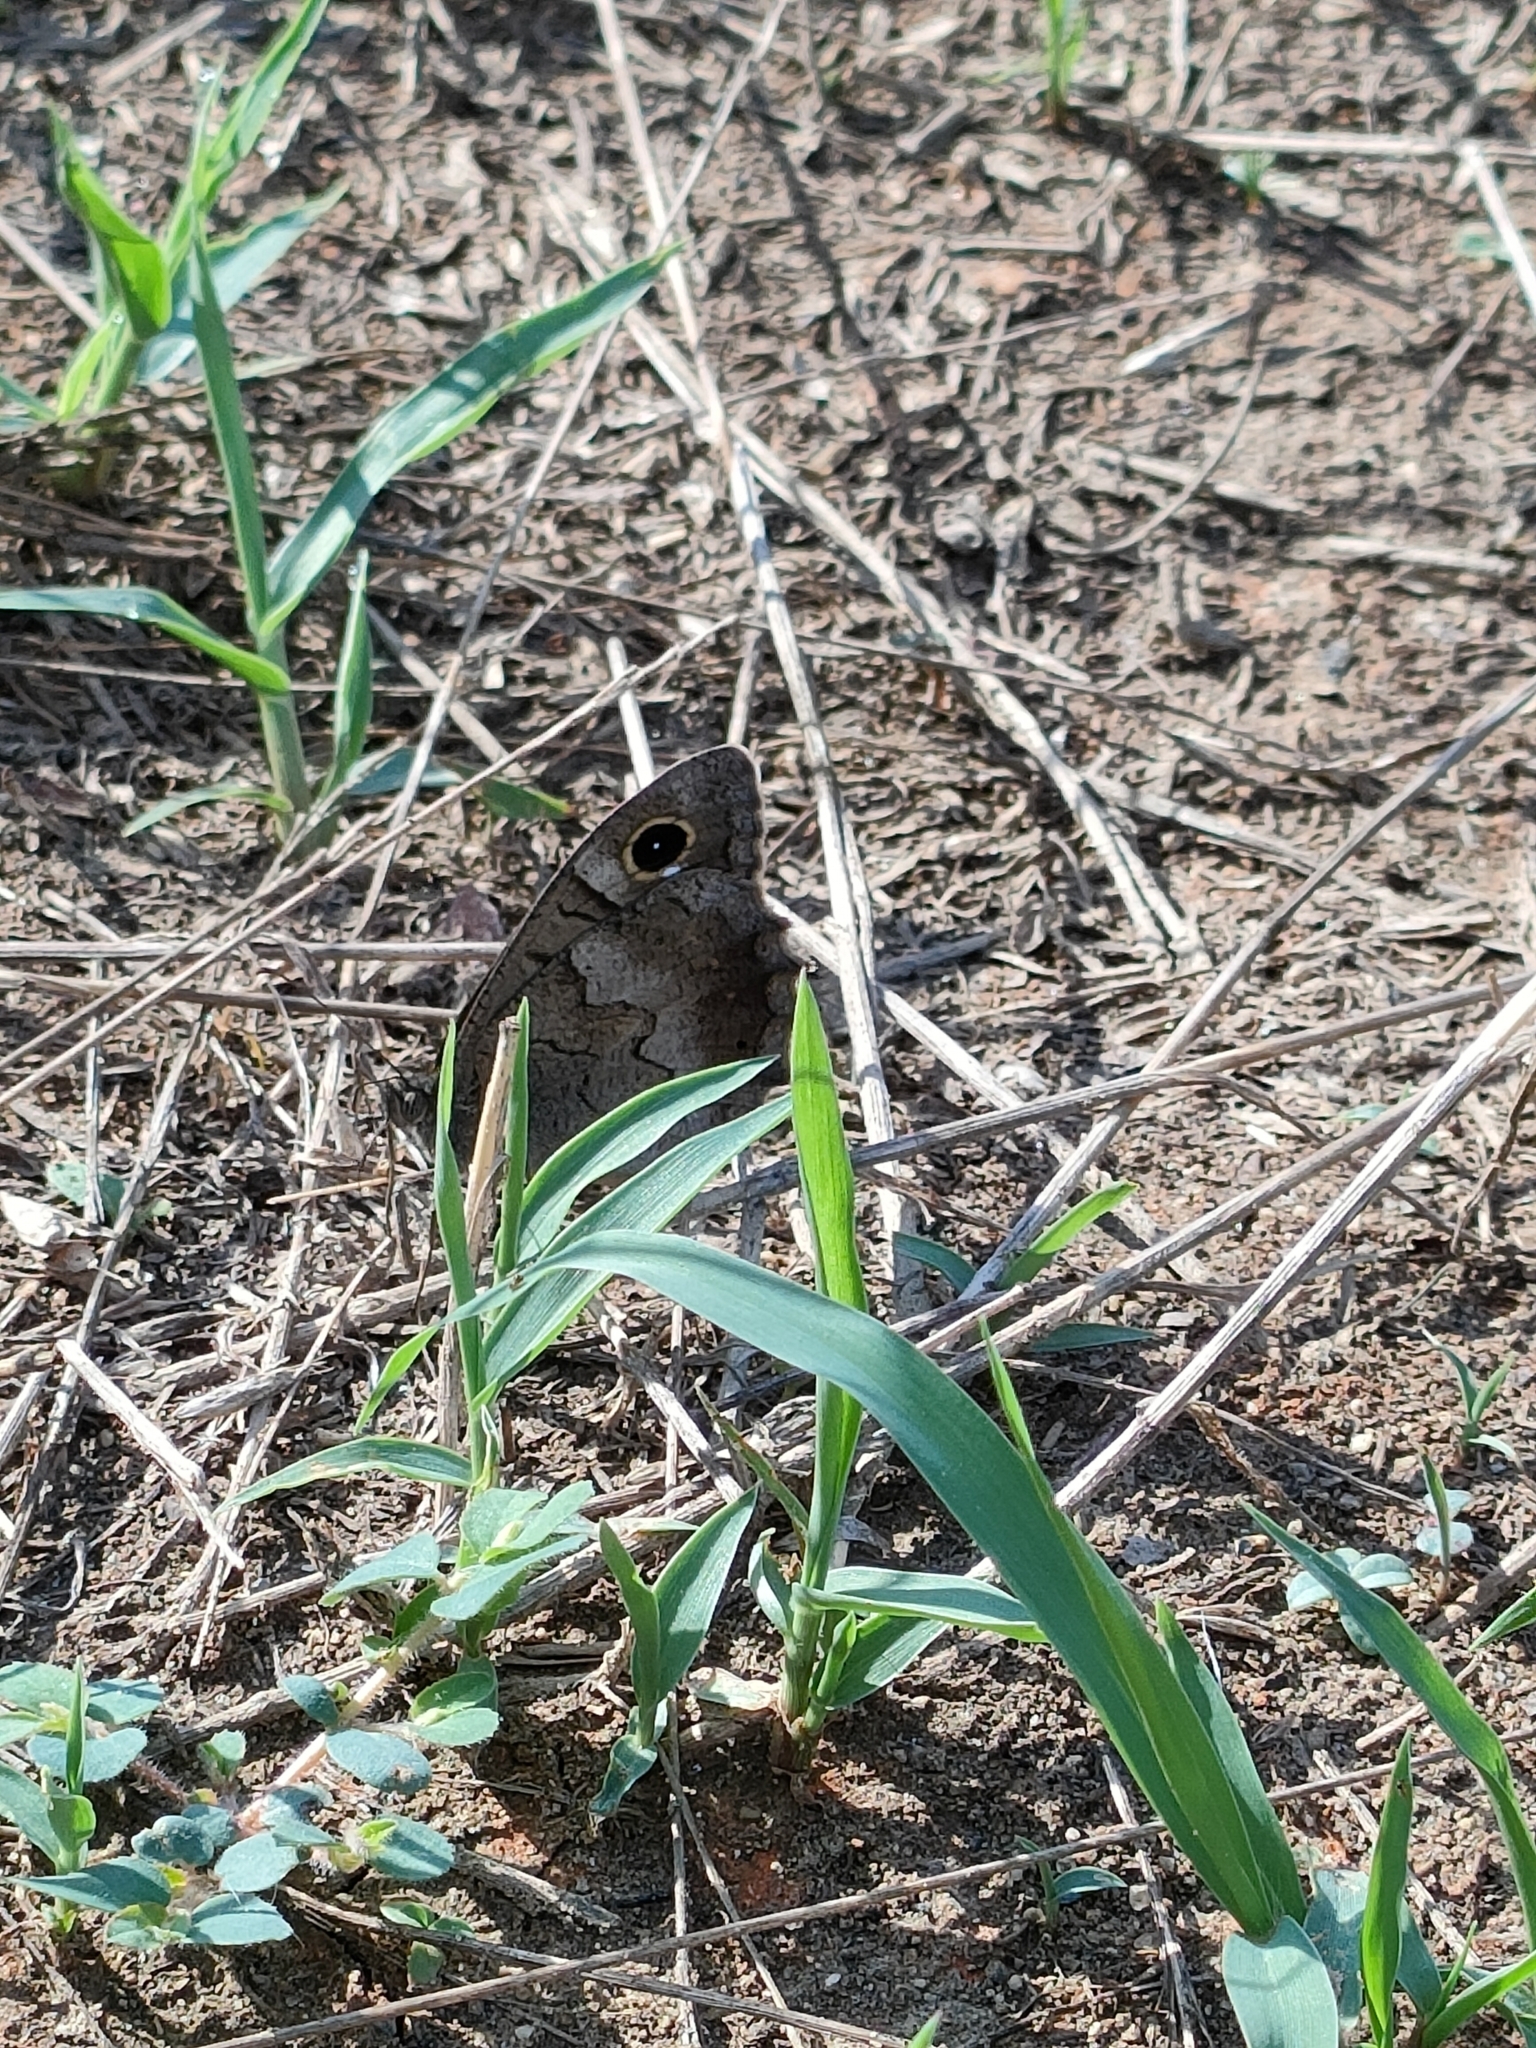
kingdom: Animalia
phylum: Arthropoda
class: Insecta
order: Lepidoptera
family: Nymphalidae
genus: Hipparchia
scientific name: Hipparchia statilinus
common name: Tree grayling
